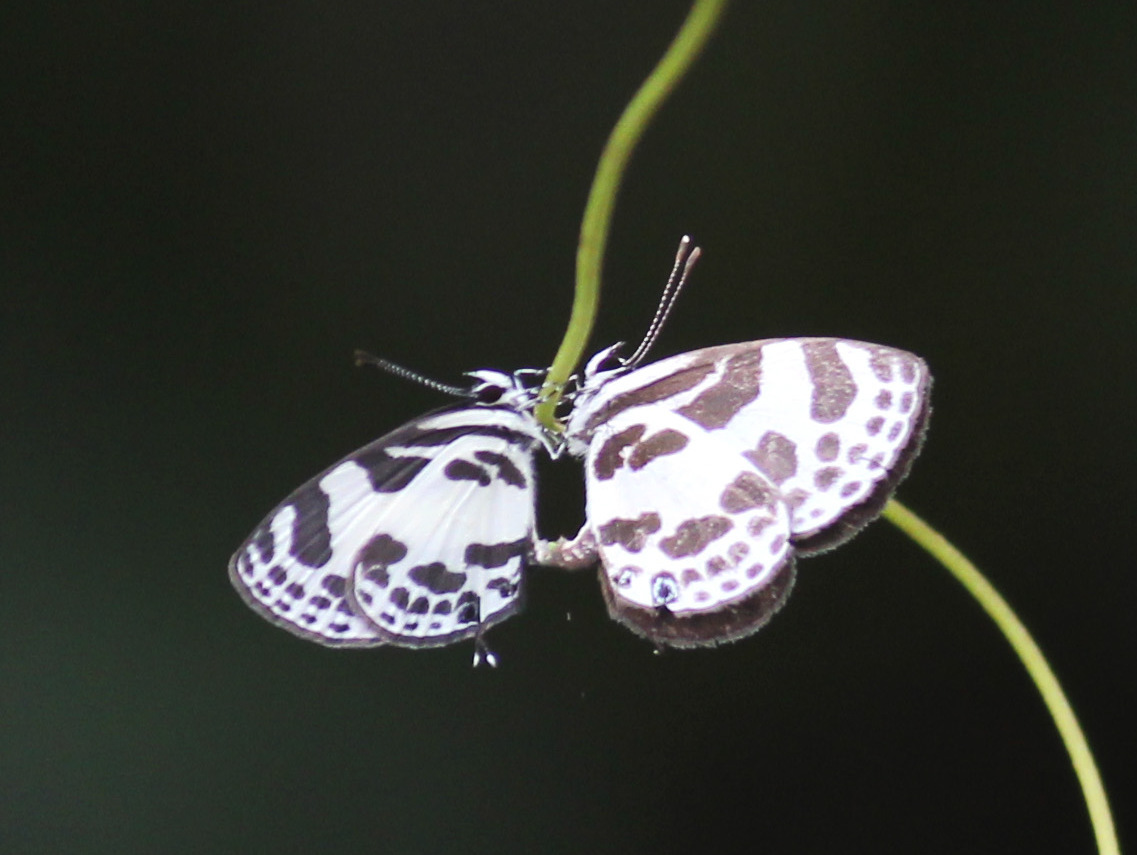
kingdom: Animalia
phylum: Arthropoda
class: Insecta
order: Lepidoptera
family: Lycaenidae
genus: Discolampa
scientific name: Discolampa ethion
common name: Banded blue pierrot
